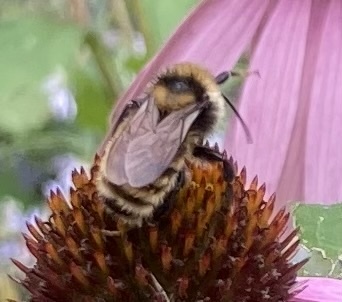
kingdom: Animalia
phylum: Arthropoda
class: Insecta
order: Hymenoptera
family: Apidae
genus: Bombus
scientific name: Bombus borealis
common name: Northern amber bumble bee
